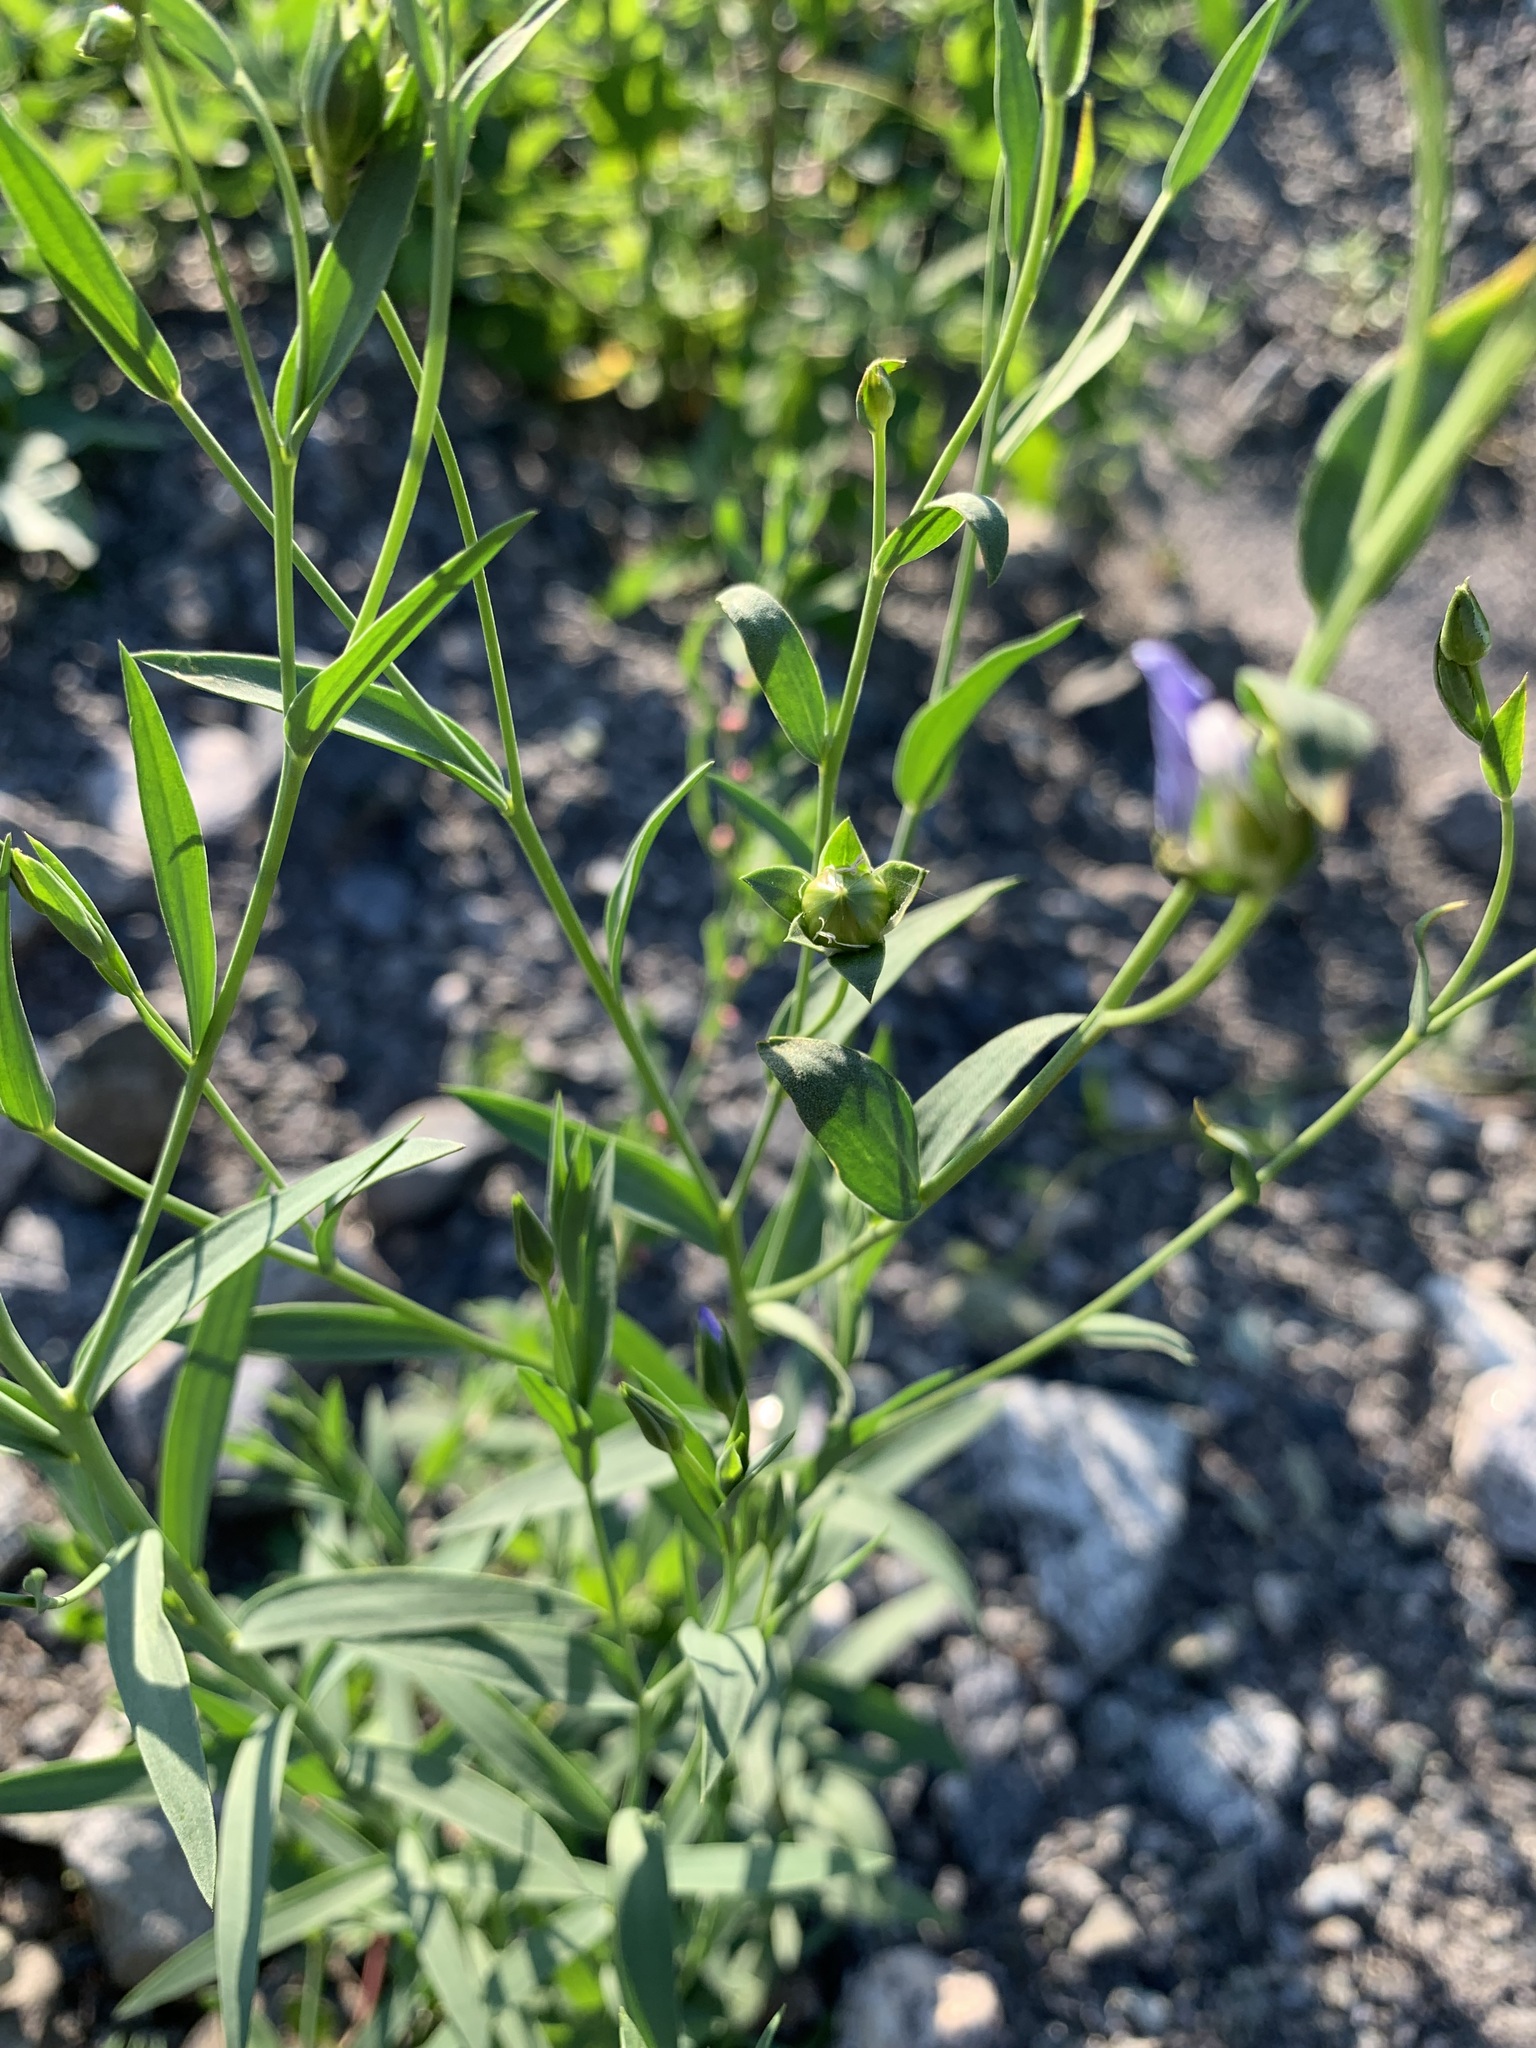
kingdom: Plantae
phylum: Tracheophyta
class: Magnoliopsida
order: Malpighiales
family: Linaceae
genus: Linum
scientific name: Linum usitatissimum
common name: Flax
